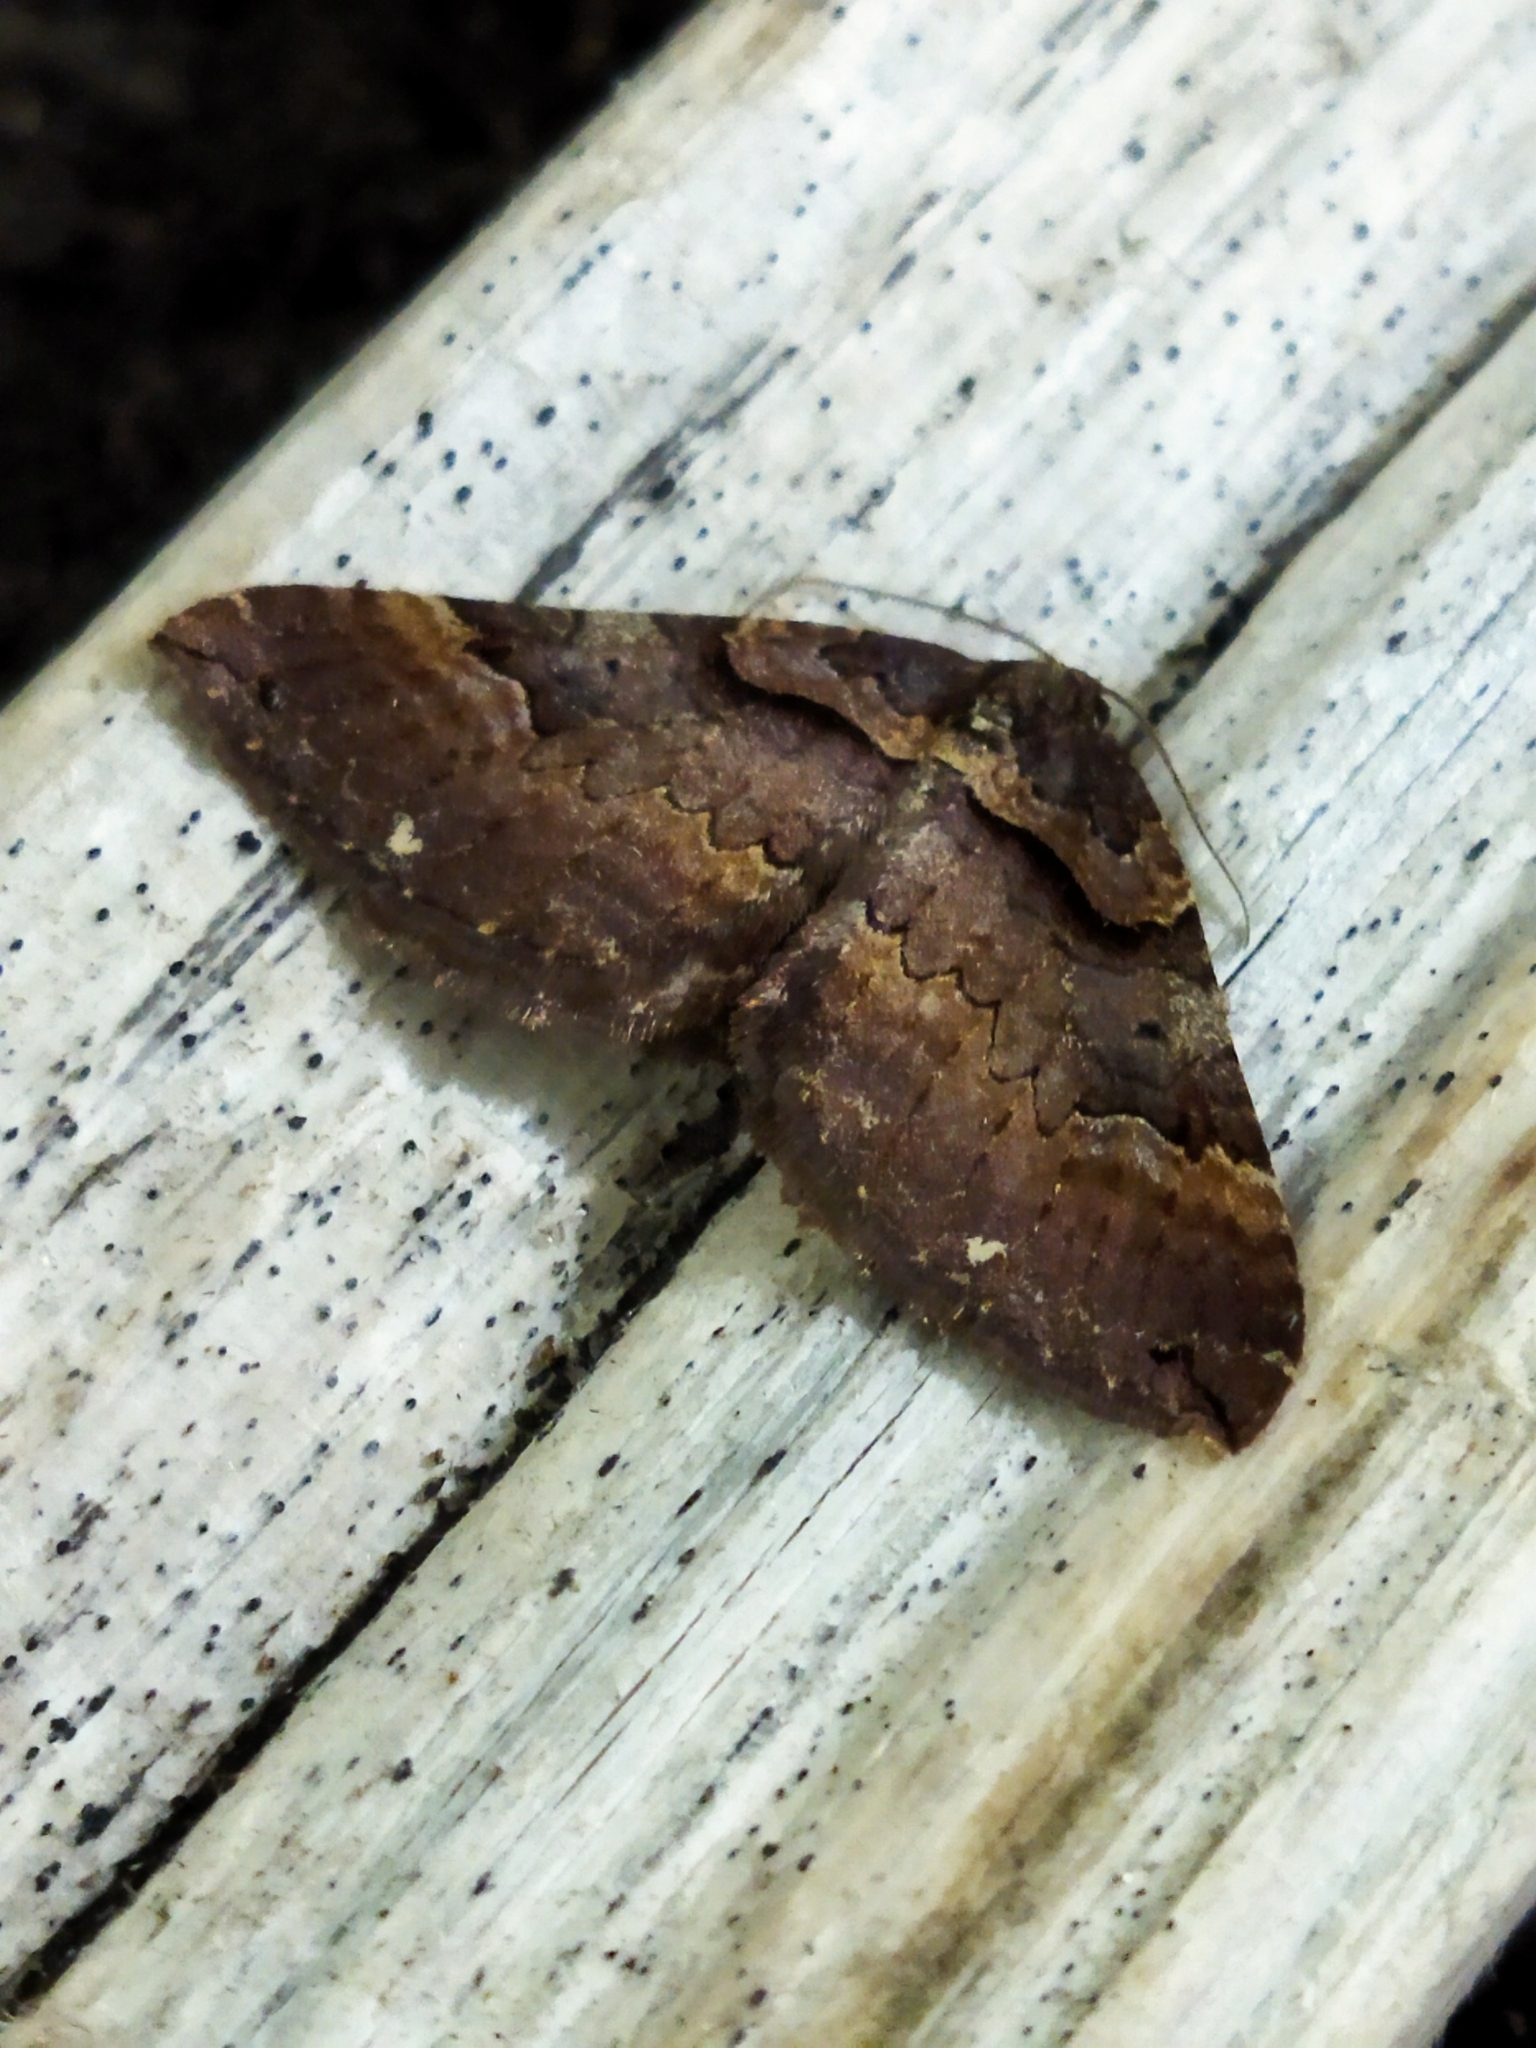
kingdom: Animalia
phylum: Arthropoda
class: Insecta
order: Lepidoptera
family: Geometridae
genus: Anticlea
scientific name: Anticlea badiata
